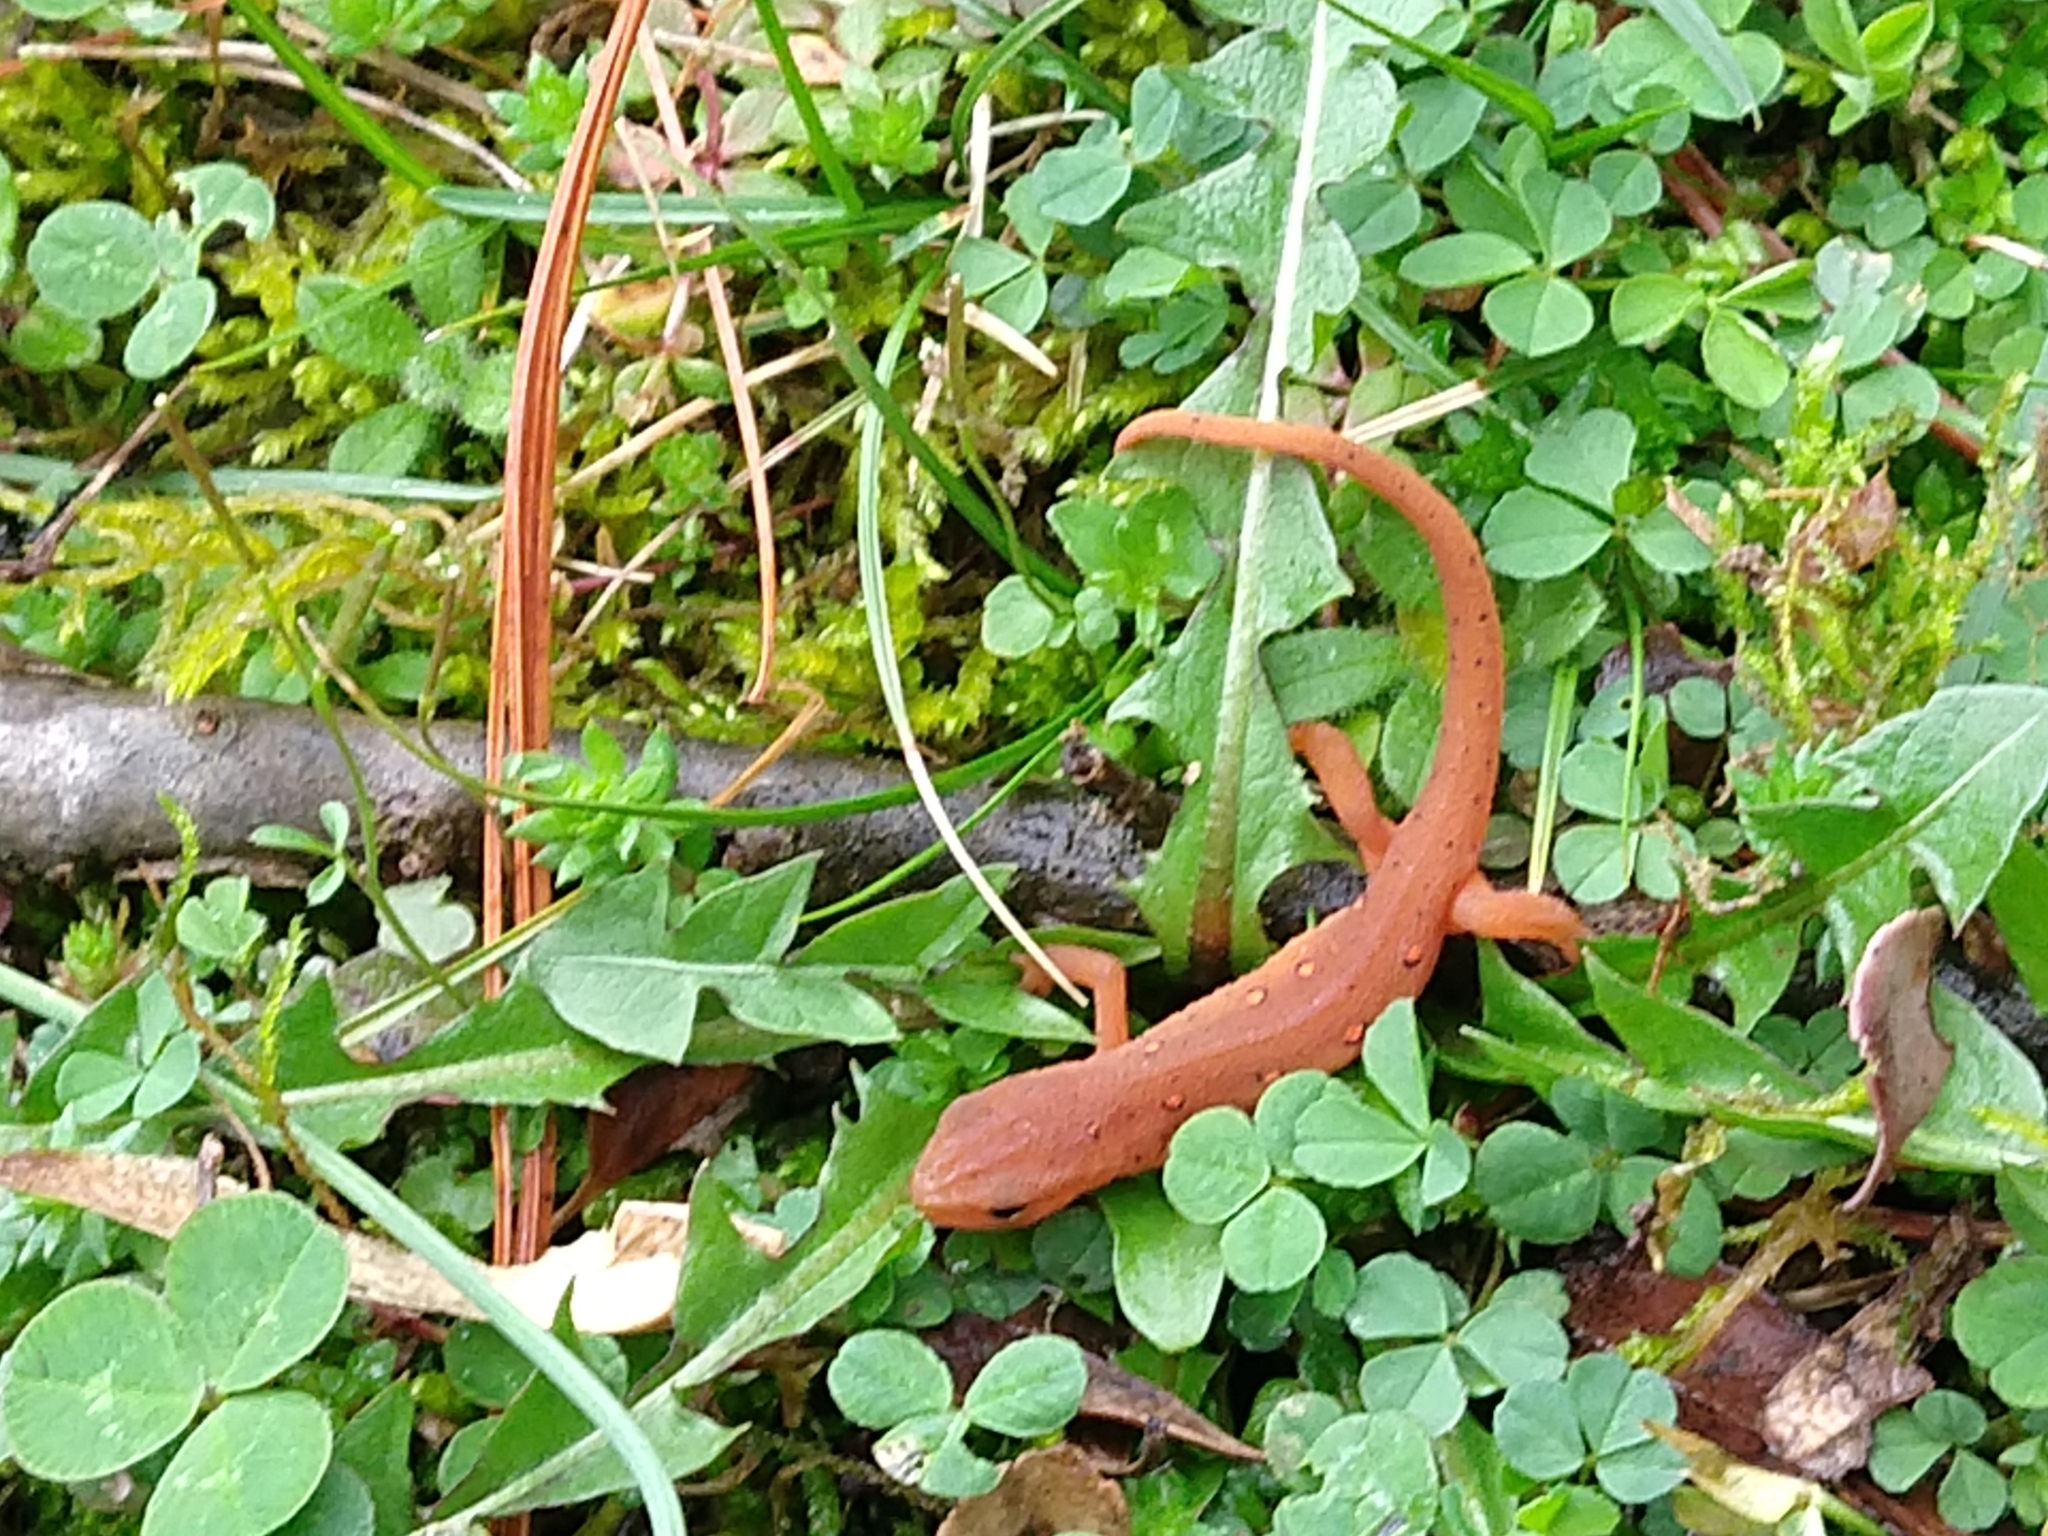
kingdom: Animalia
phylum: Chordata
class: Amphibia
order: Caudata
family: Salamandridae
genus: Notophthalmus
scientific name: Notophthalmus viridescens
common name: Eastern newt
